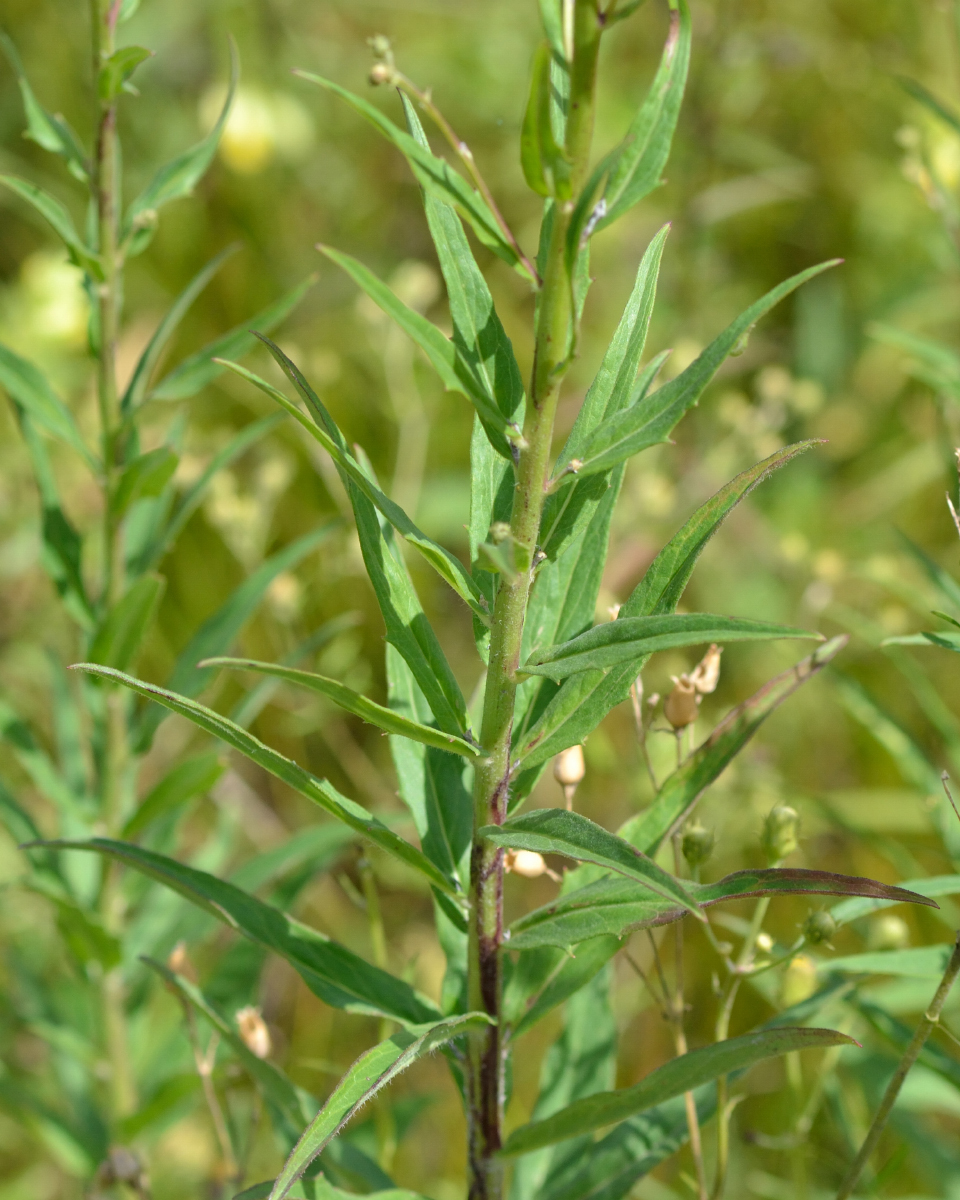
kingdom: Plantae
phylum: Tracheophyta
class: Magnoliopsida
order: Asterales
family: Asteraceae
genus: Hieracium
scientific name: Hieracium umbellatum
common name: Northern hawkweed
